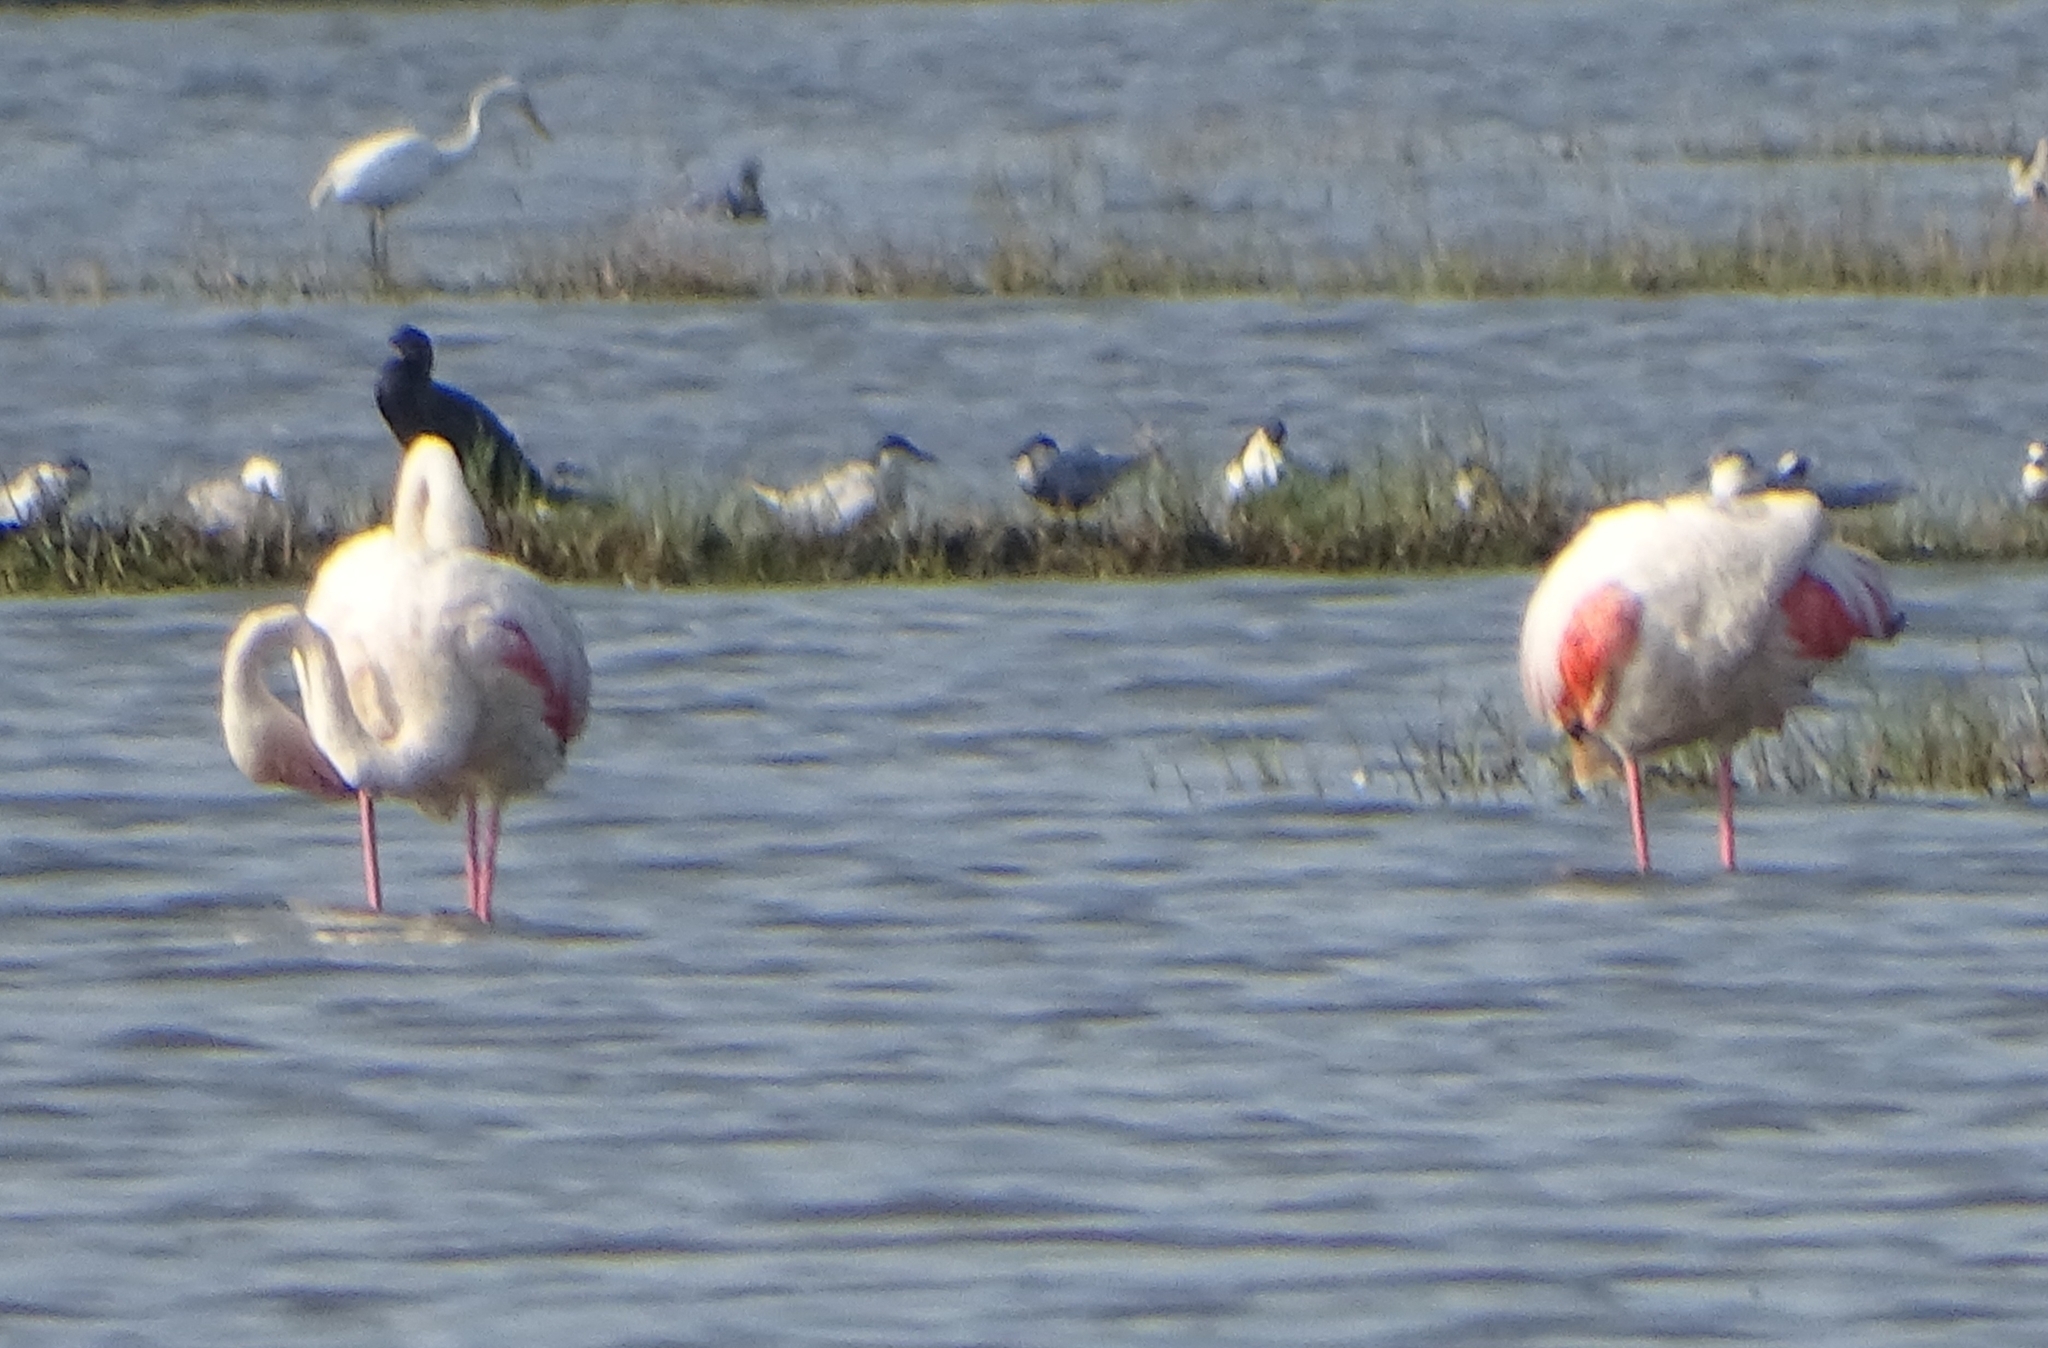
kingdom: Animalia
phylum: Chordata
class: Aves
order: Phoenicopteriformes
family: Phoenicopteridae
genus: Phoenicopterus
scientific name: Phoenicopterus roseus
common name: Greater flamingo
